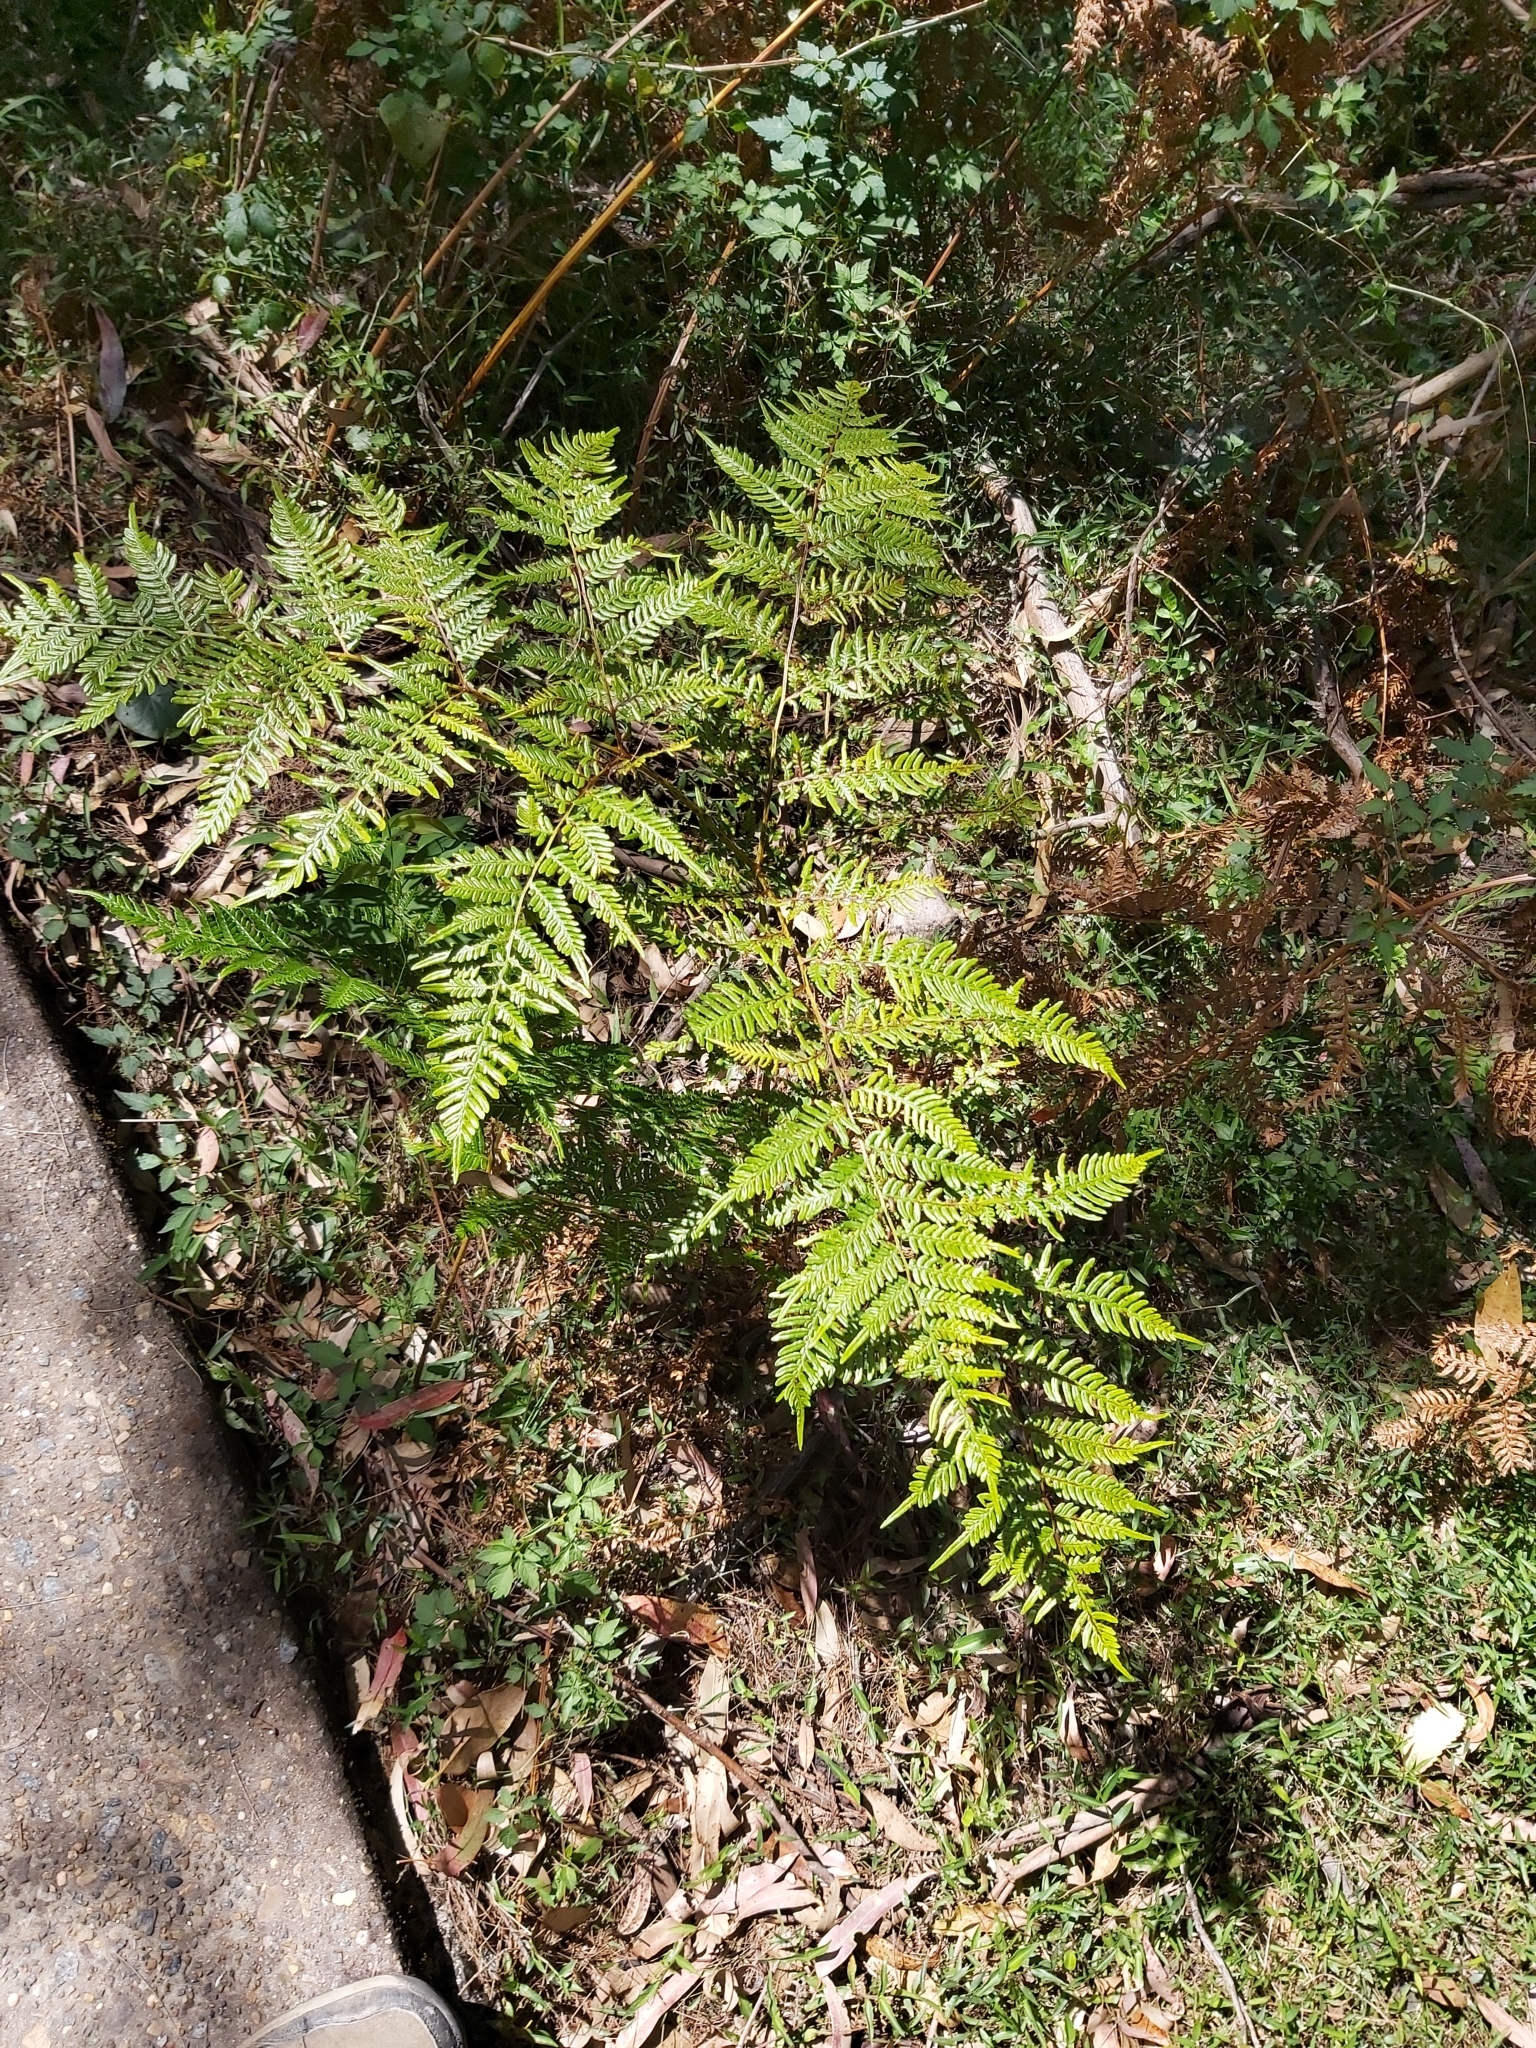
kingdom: Plantae
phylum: Tracheophyta
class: Polypodiopsida
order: Polypodiales
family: Dennstaedtiaceae
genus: Pteridium
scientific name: Pteridium esculentum
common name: Bracken fern
